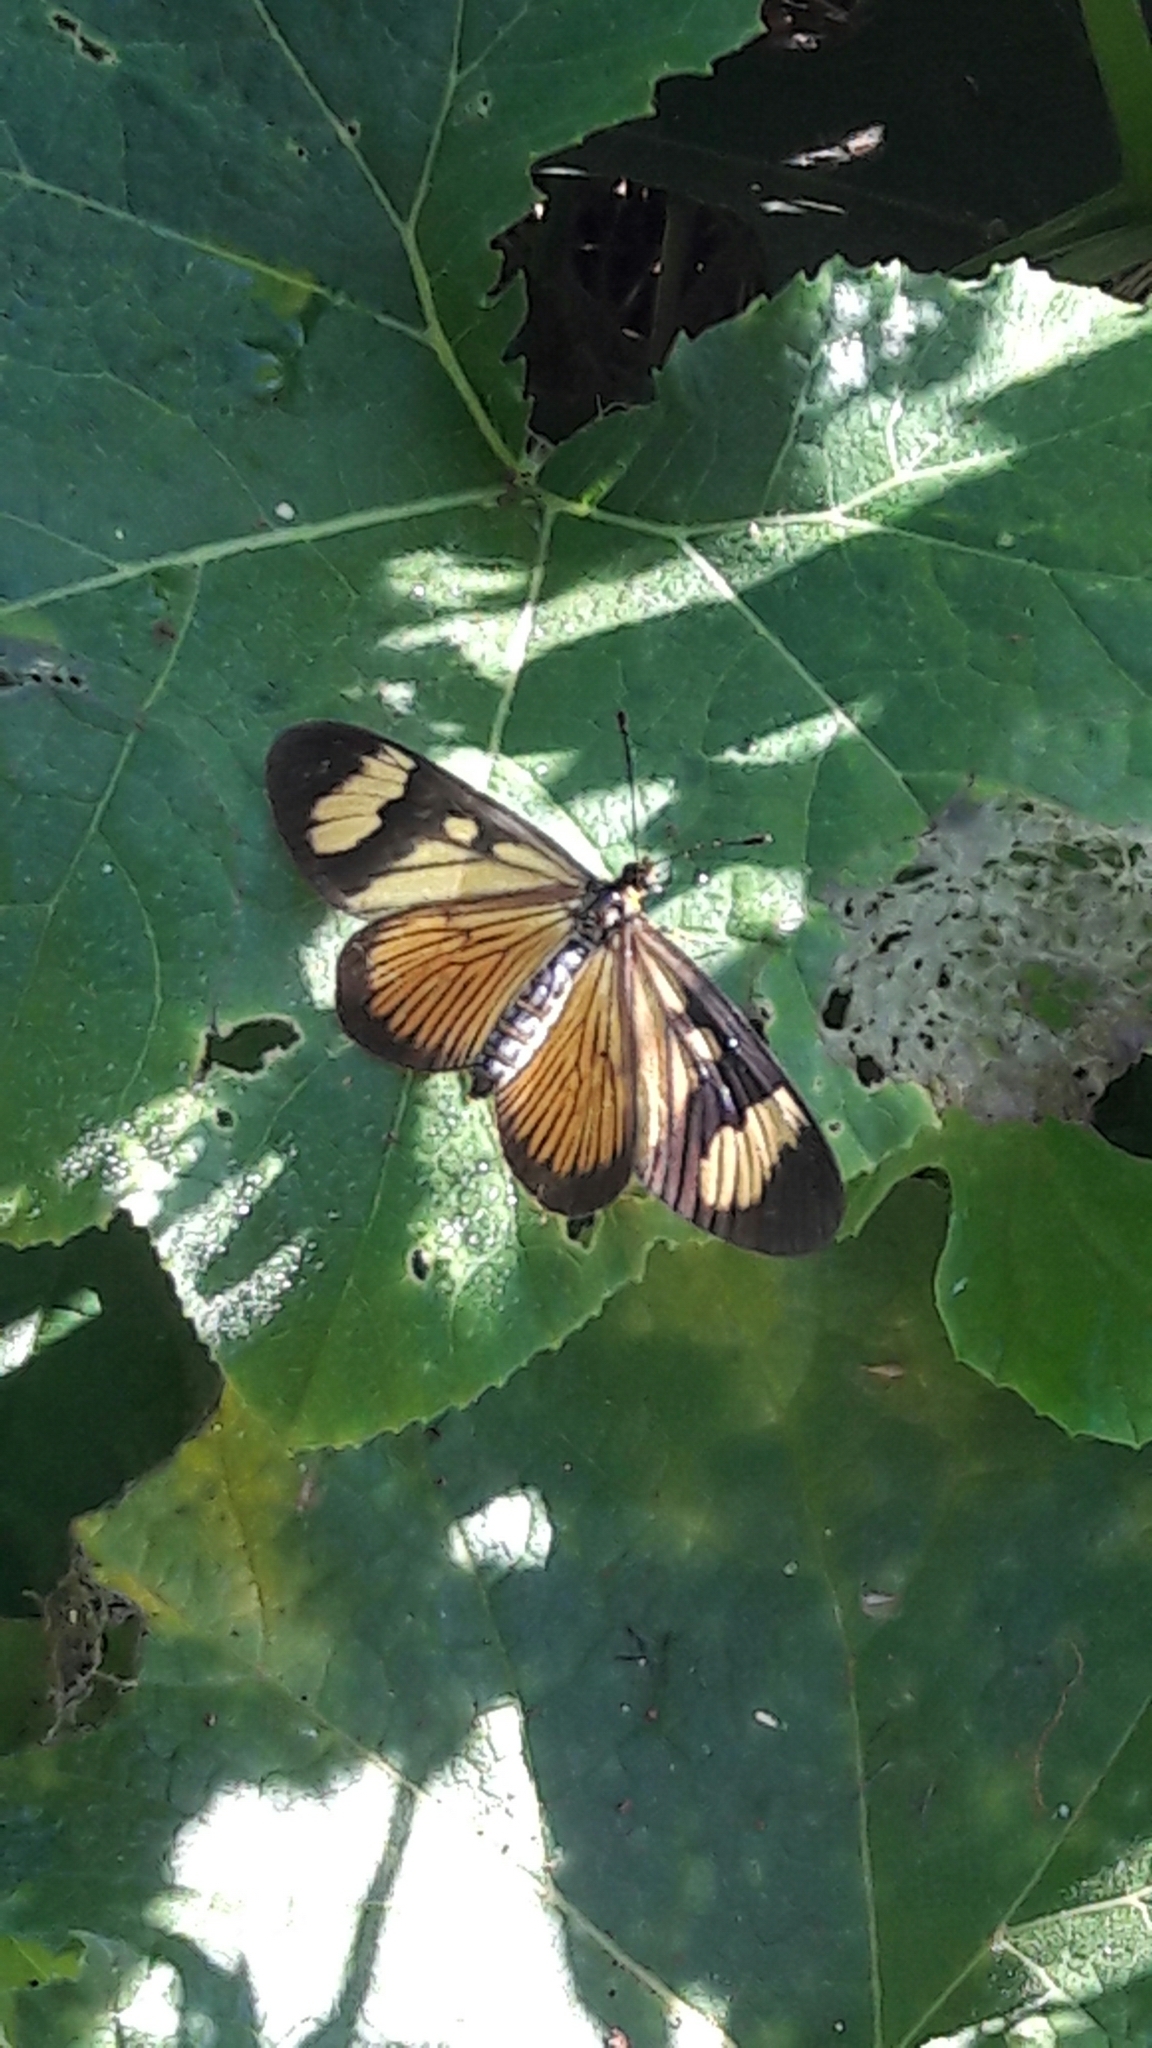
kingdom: Animalia
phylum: Arthropoda
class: Insecta
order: Lepidoptera
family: Nymphalidae
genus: Actinote
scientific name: Actinote pellenea
